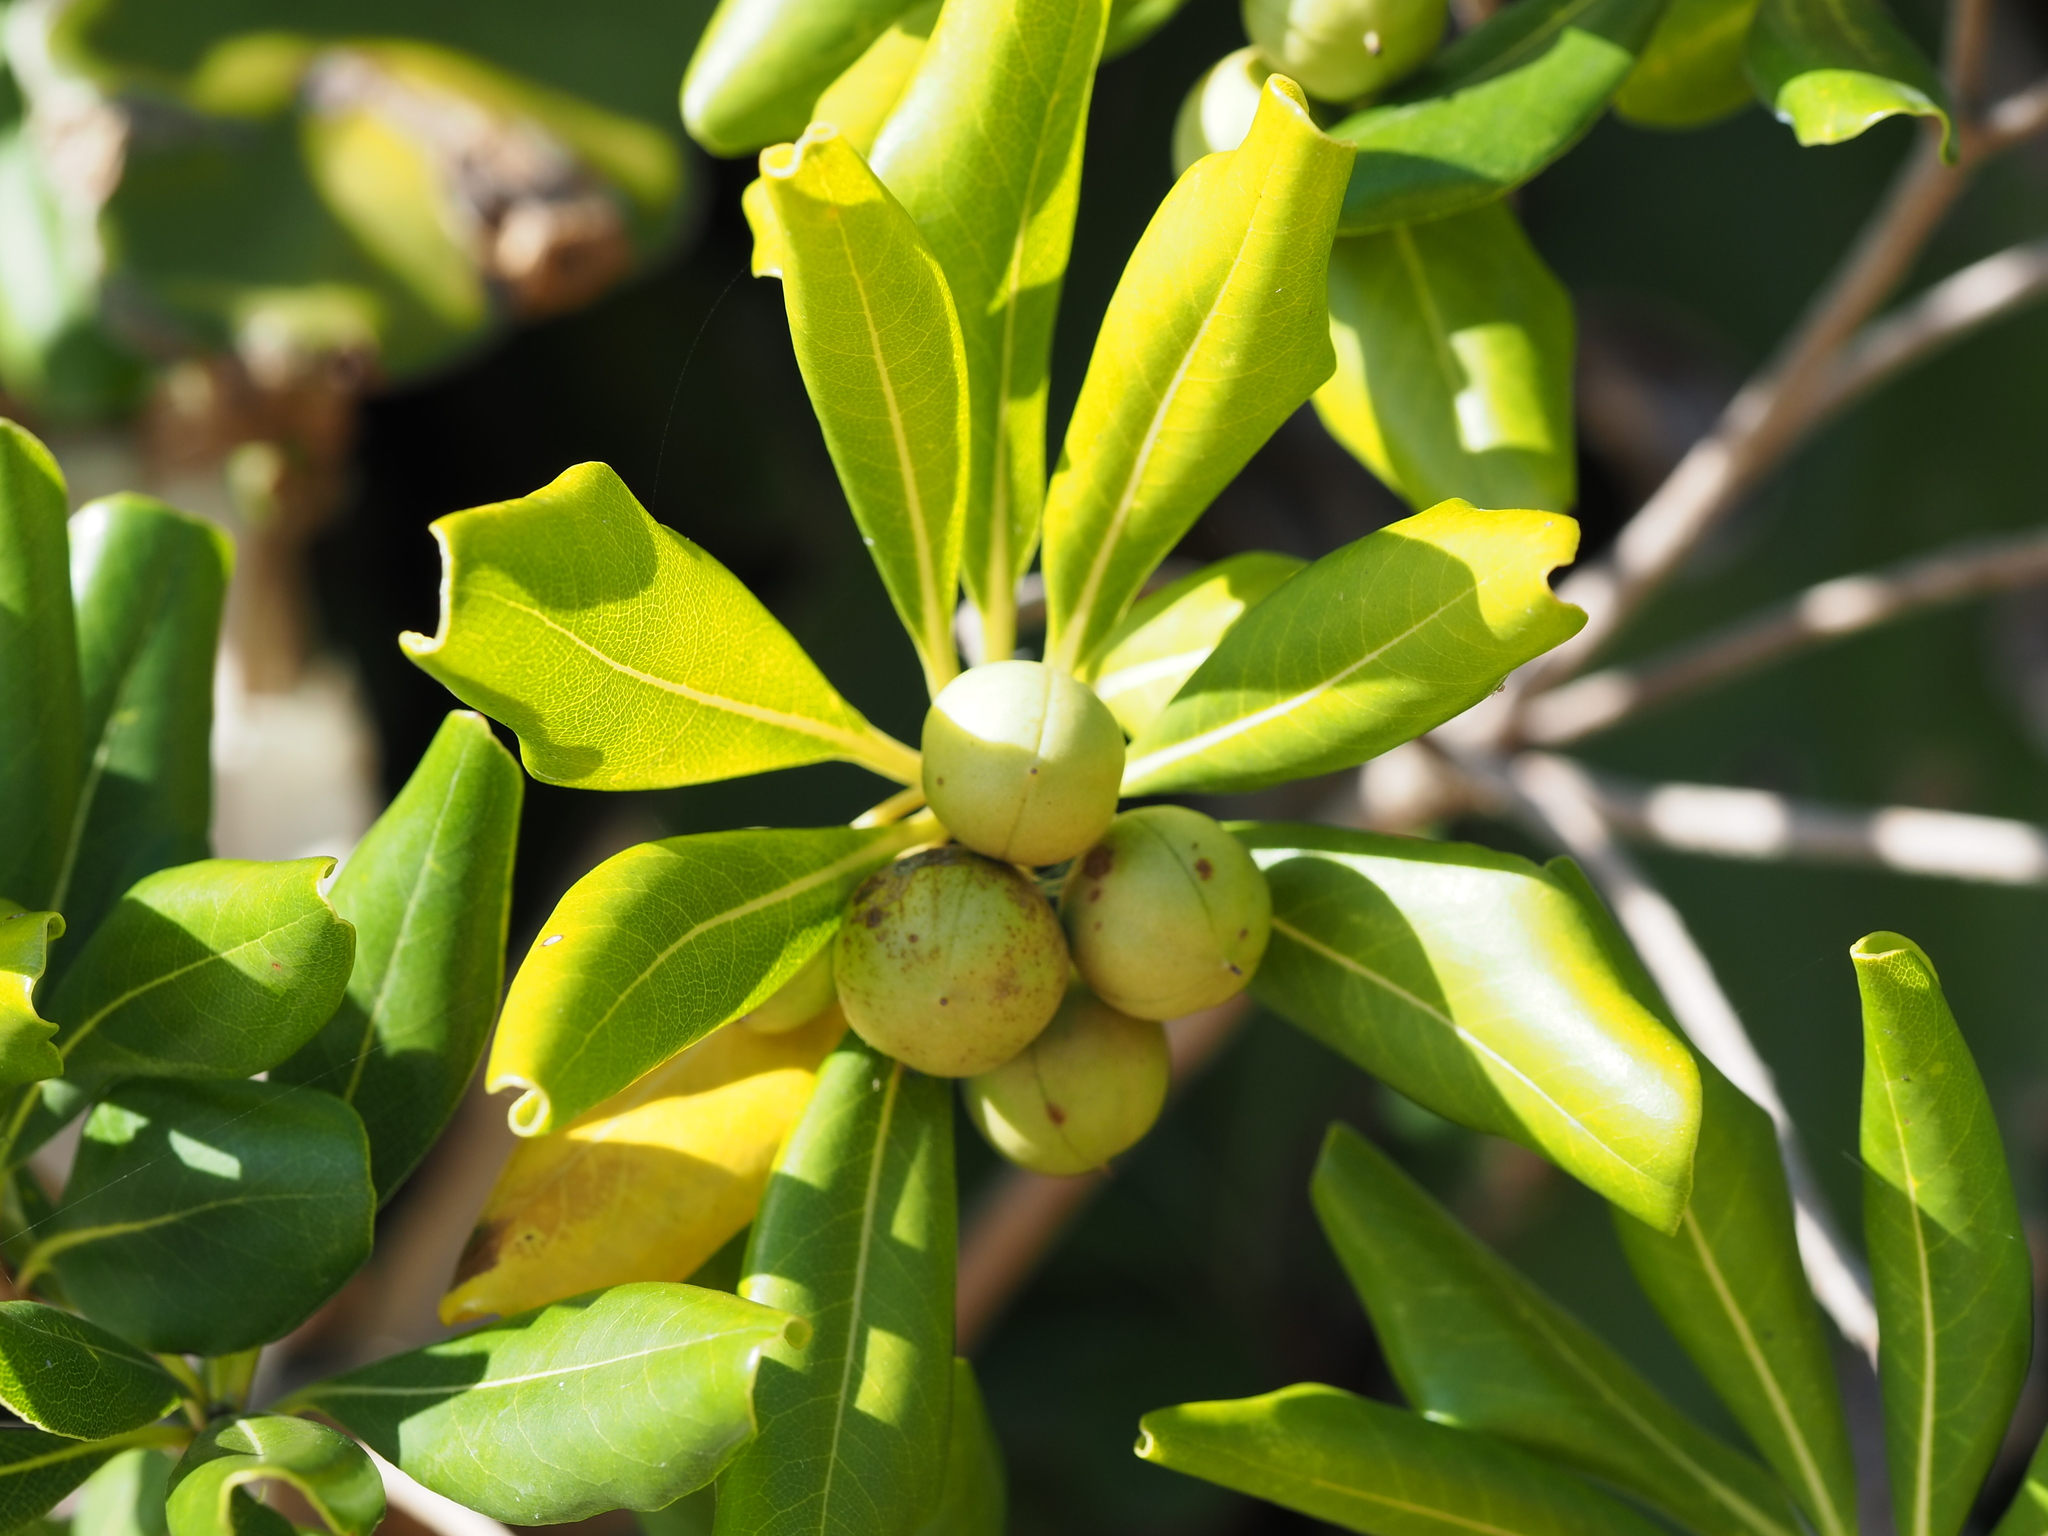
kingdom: Plantae
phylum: Tracheophyta
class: Magnoliopsida
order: Apiales
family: Pittosporaceae
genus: Pittosporum
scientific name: Pittosporum tobira
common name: Japanese cheesewood
